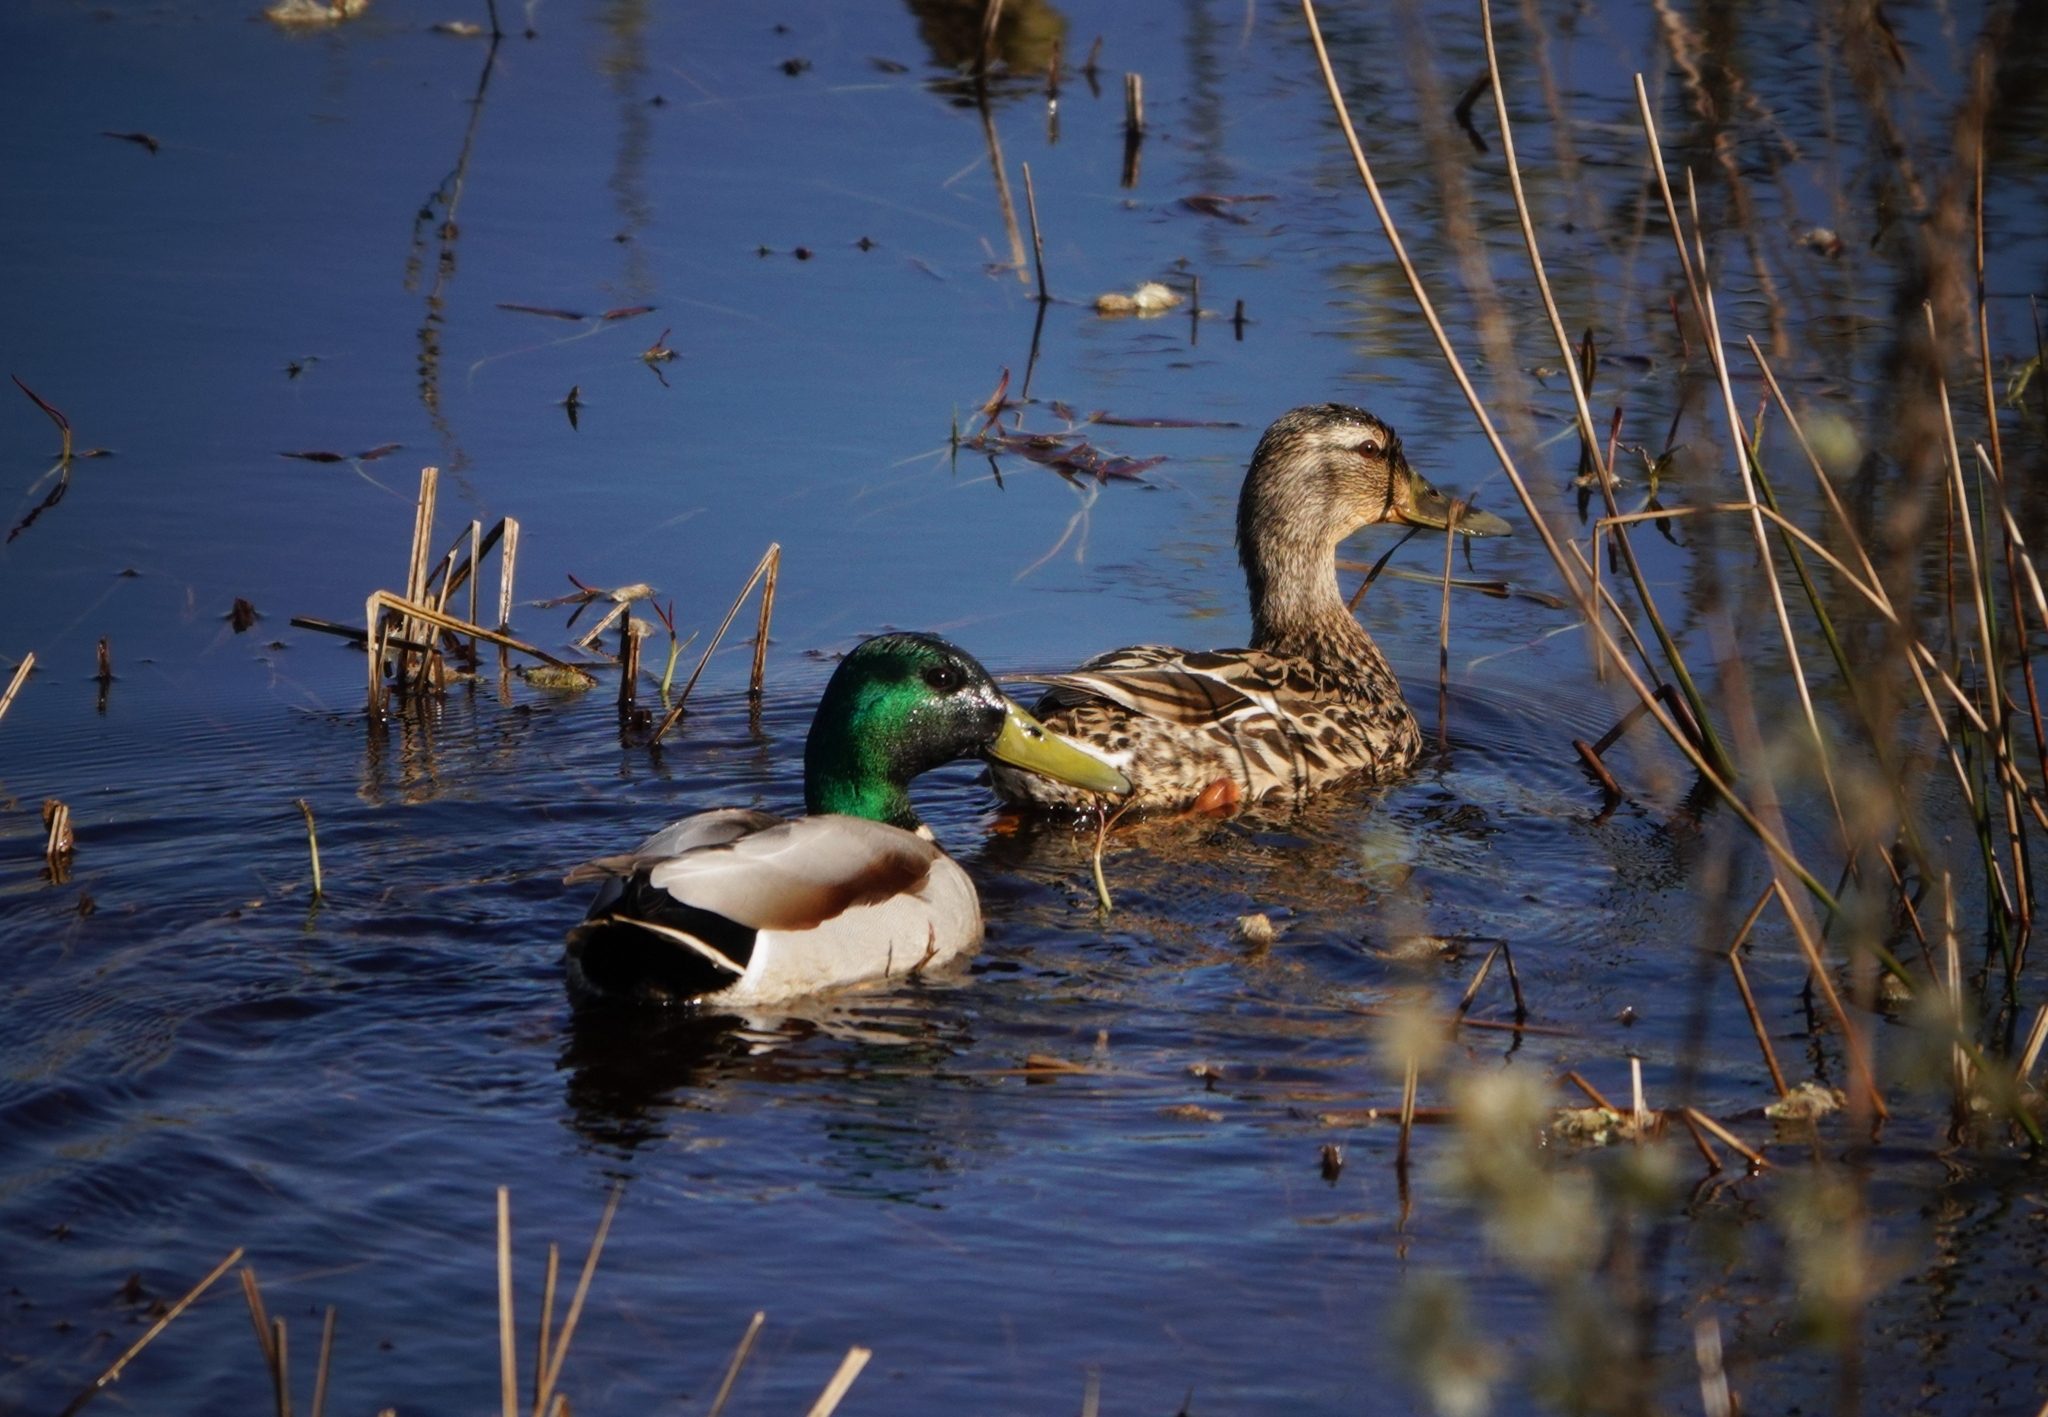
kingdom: Animalia
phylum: Chordata
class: Aves
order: Anseriformes
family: Anatidae
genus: Anas
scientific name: Anas platyrhynchos
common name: Mallard
